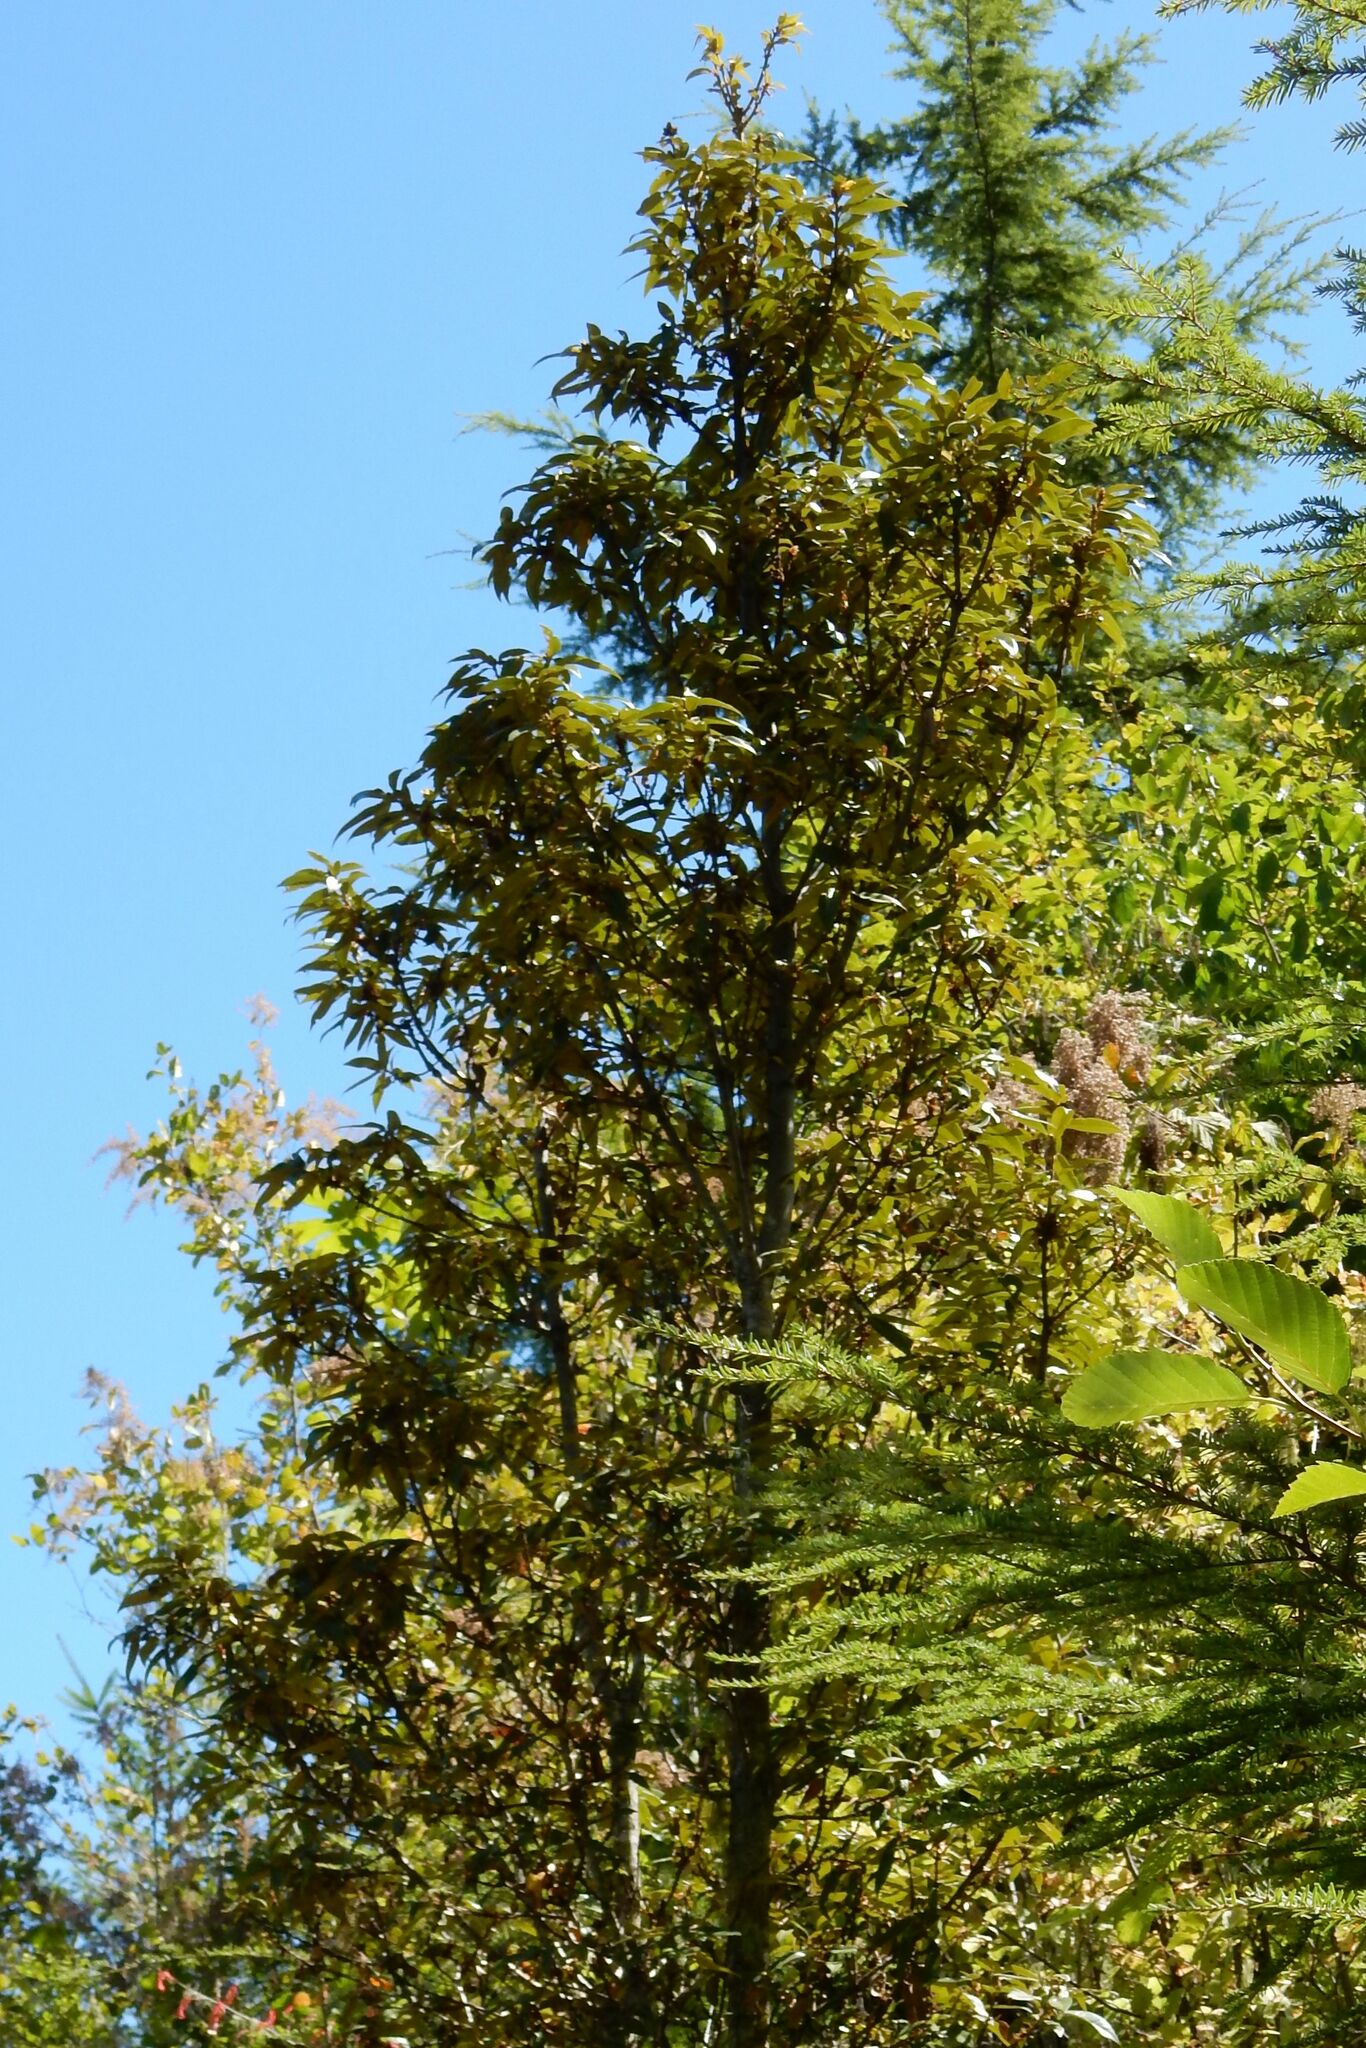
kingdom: Plantae
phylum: Tracheophyta
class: Magnoliopsida
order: Fagales
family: Fagaceae
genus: Chrysolepis
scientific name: Chrysolepis chrysophylla
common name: Giant chinquapin
